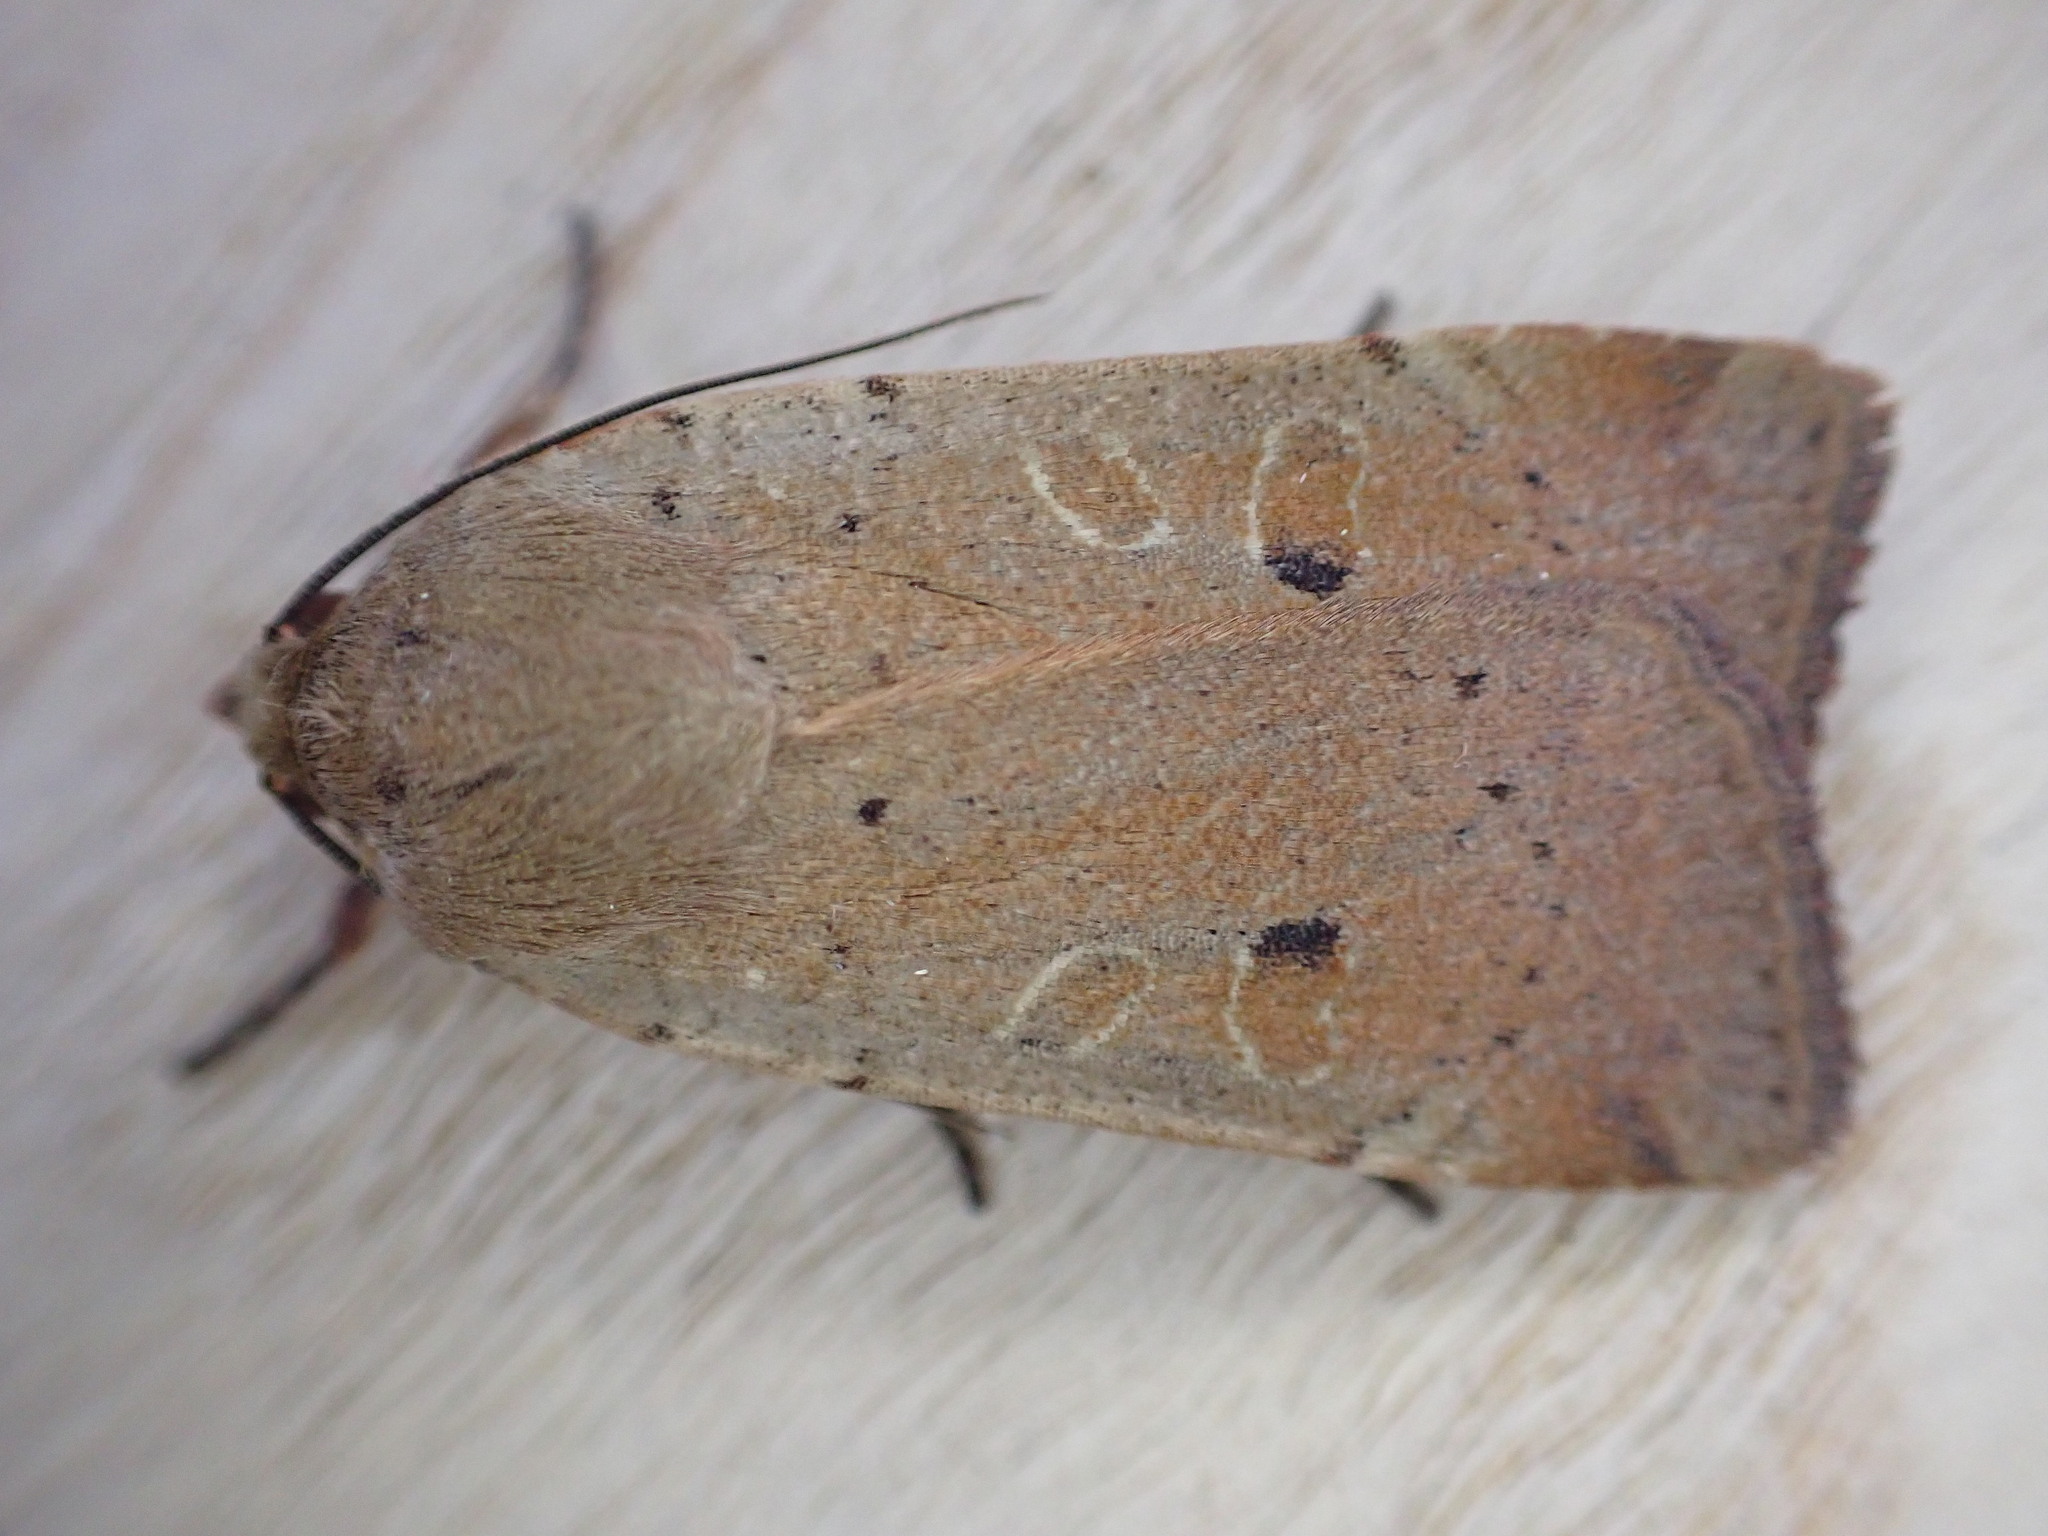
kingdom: Animalia
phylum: Arthropoda
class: Insecta
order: Lepidoptera
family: Noctuidae
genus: Noctua
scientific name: Noctua comes
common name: Lesser yellow underwing
